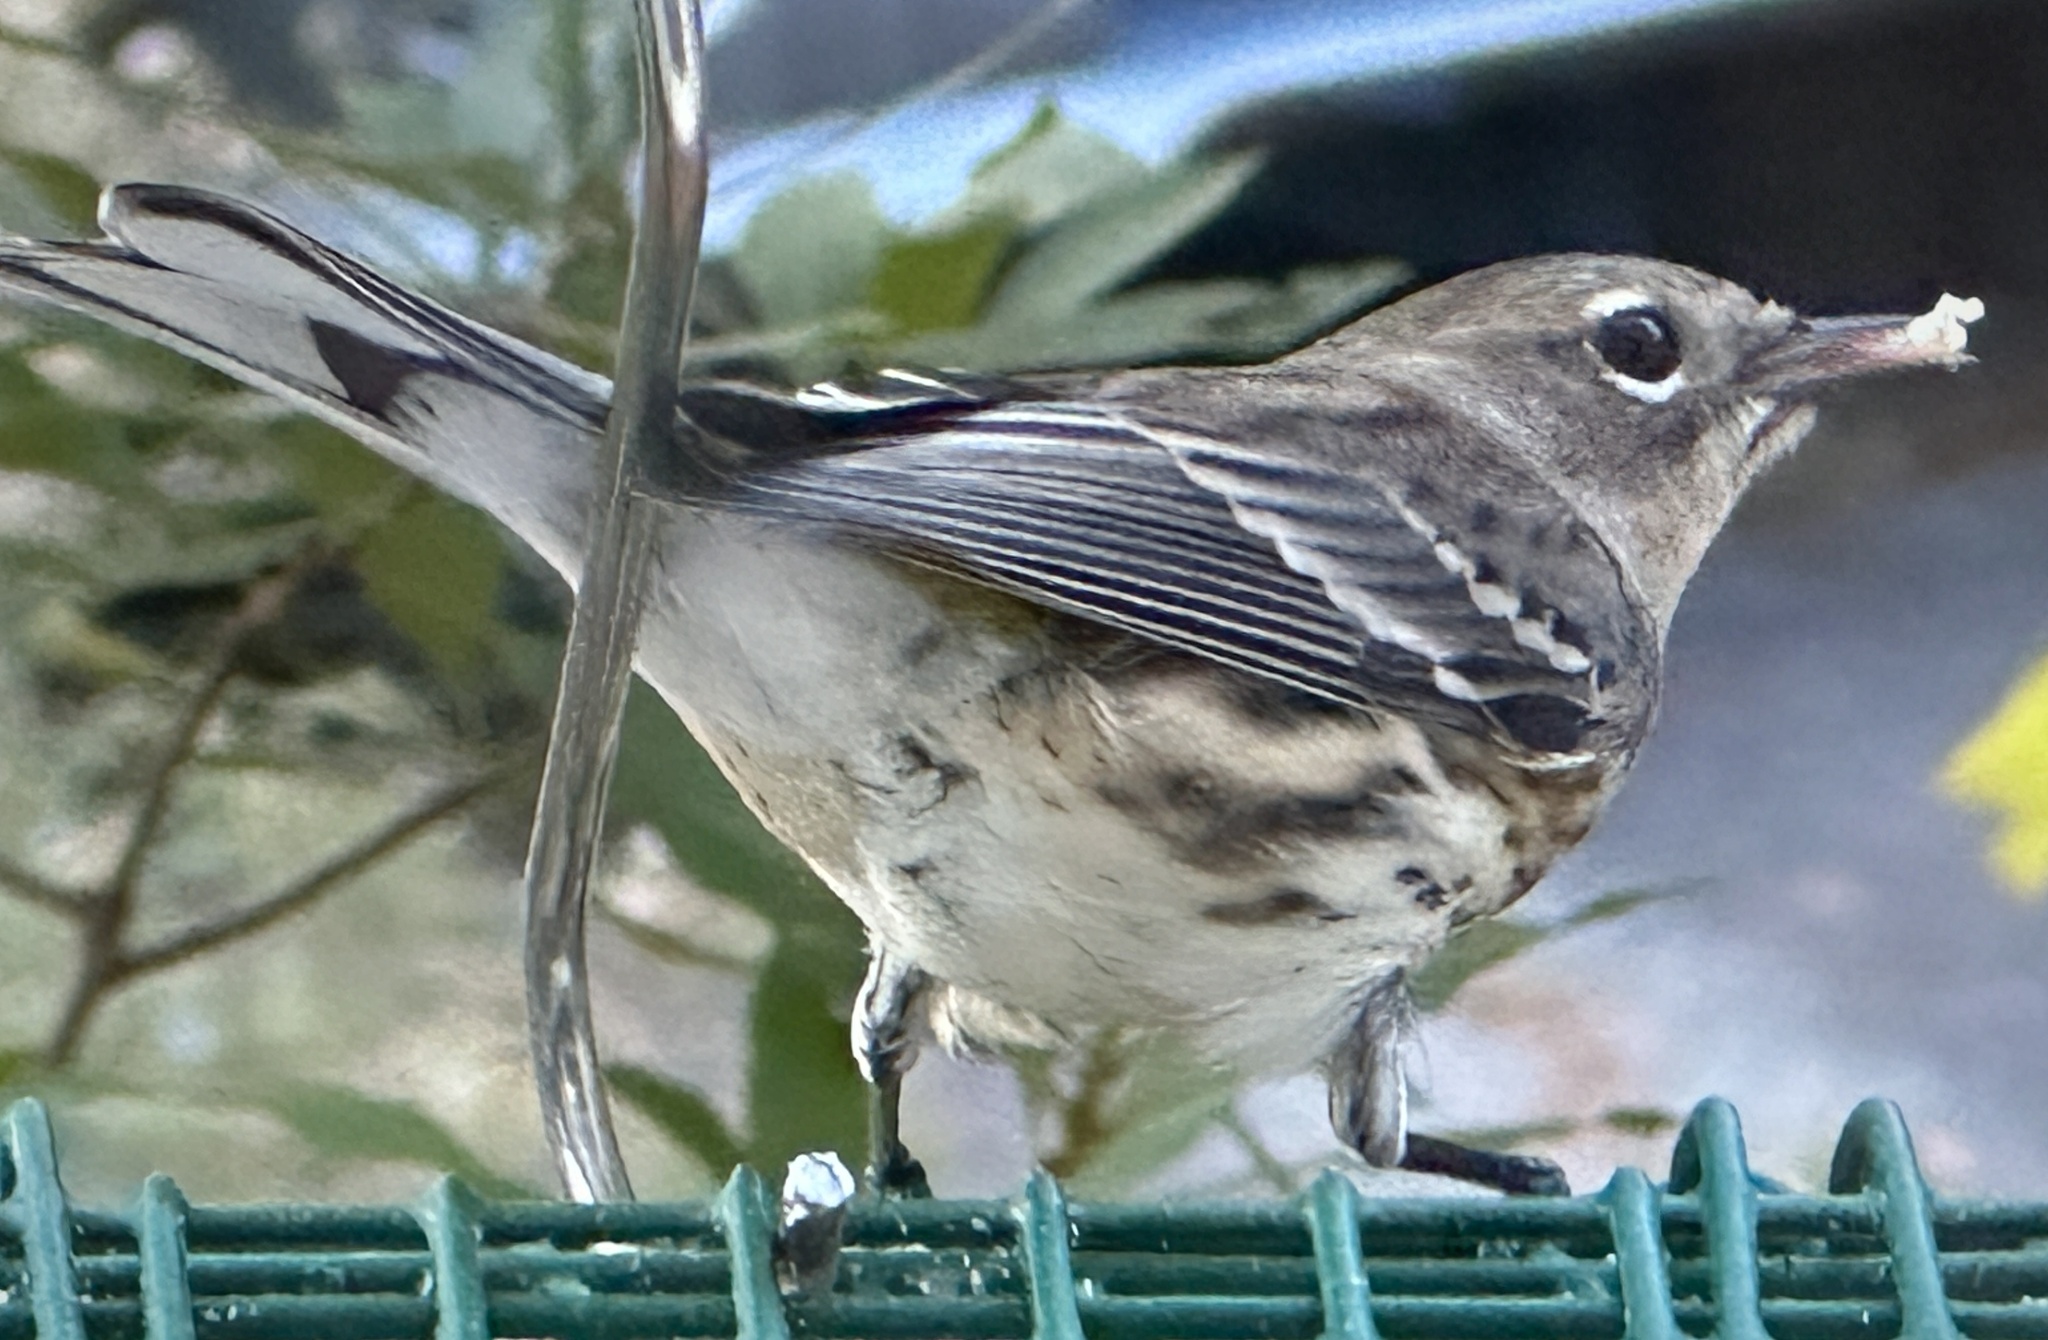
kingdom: Animalia
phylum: Chordata
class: Aves
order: Passeriformes
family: Parulidae
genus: Setophaga
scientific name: Setophaga coronata
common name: Myrtle warbler
